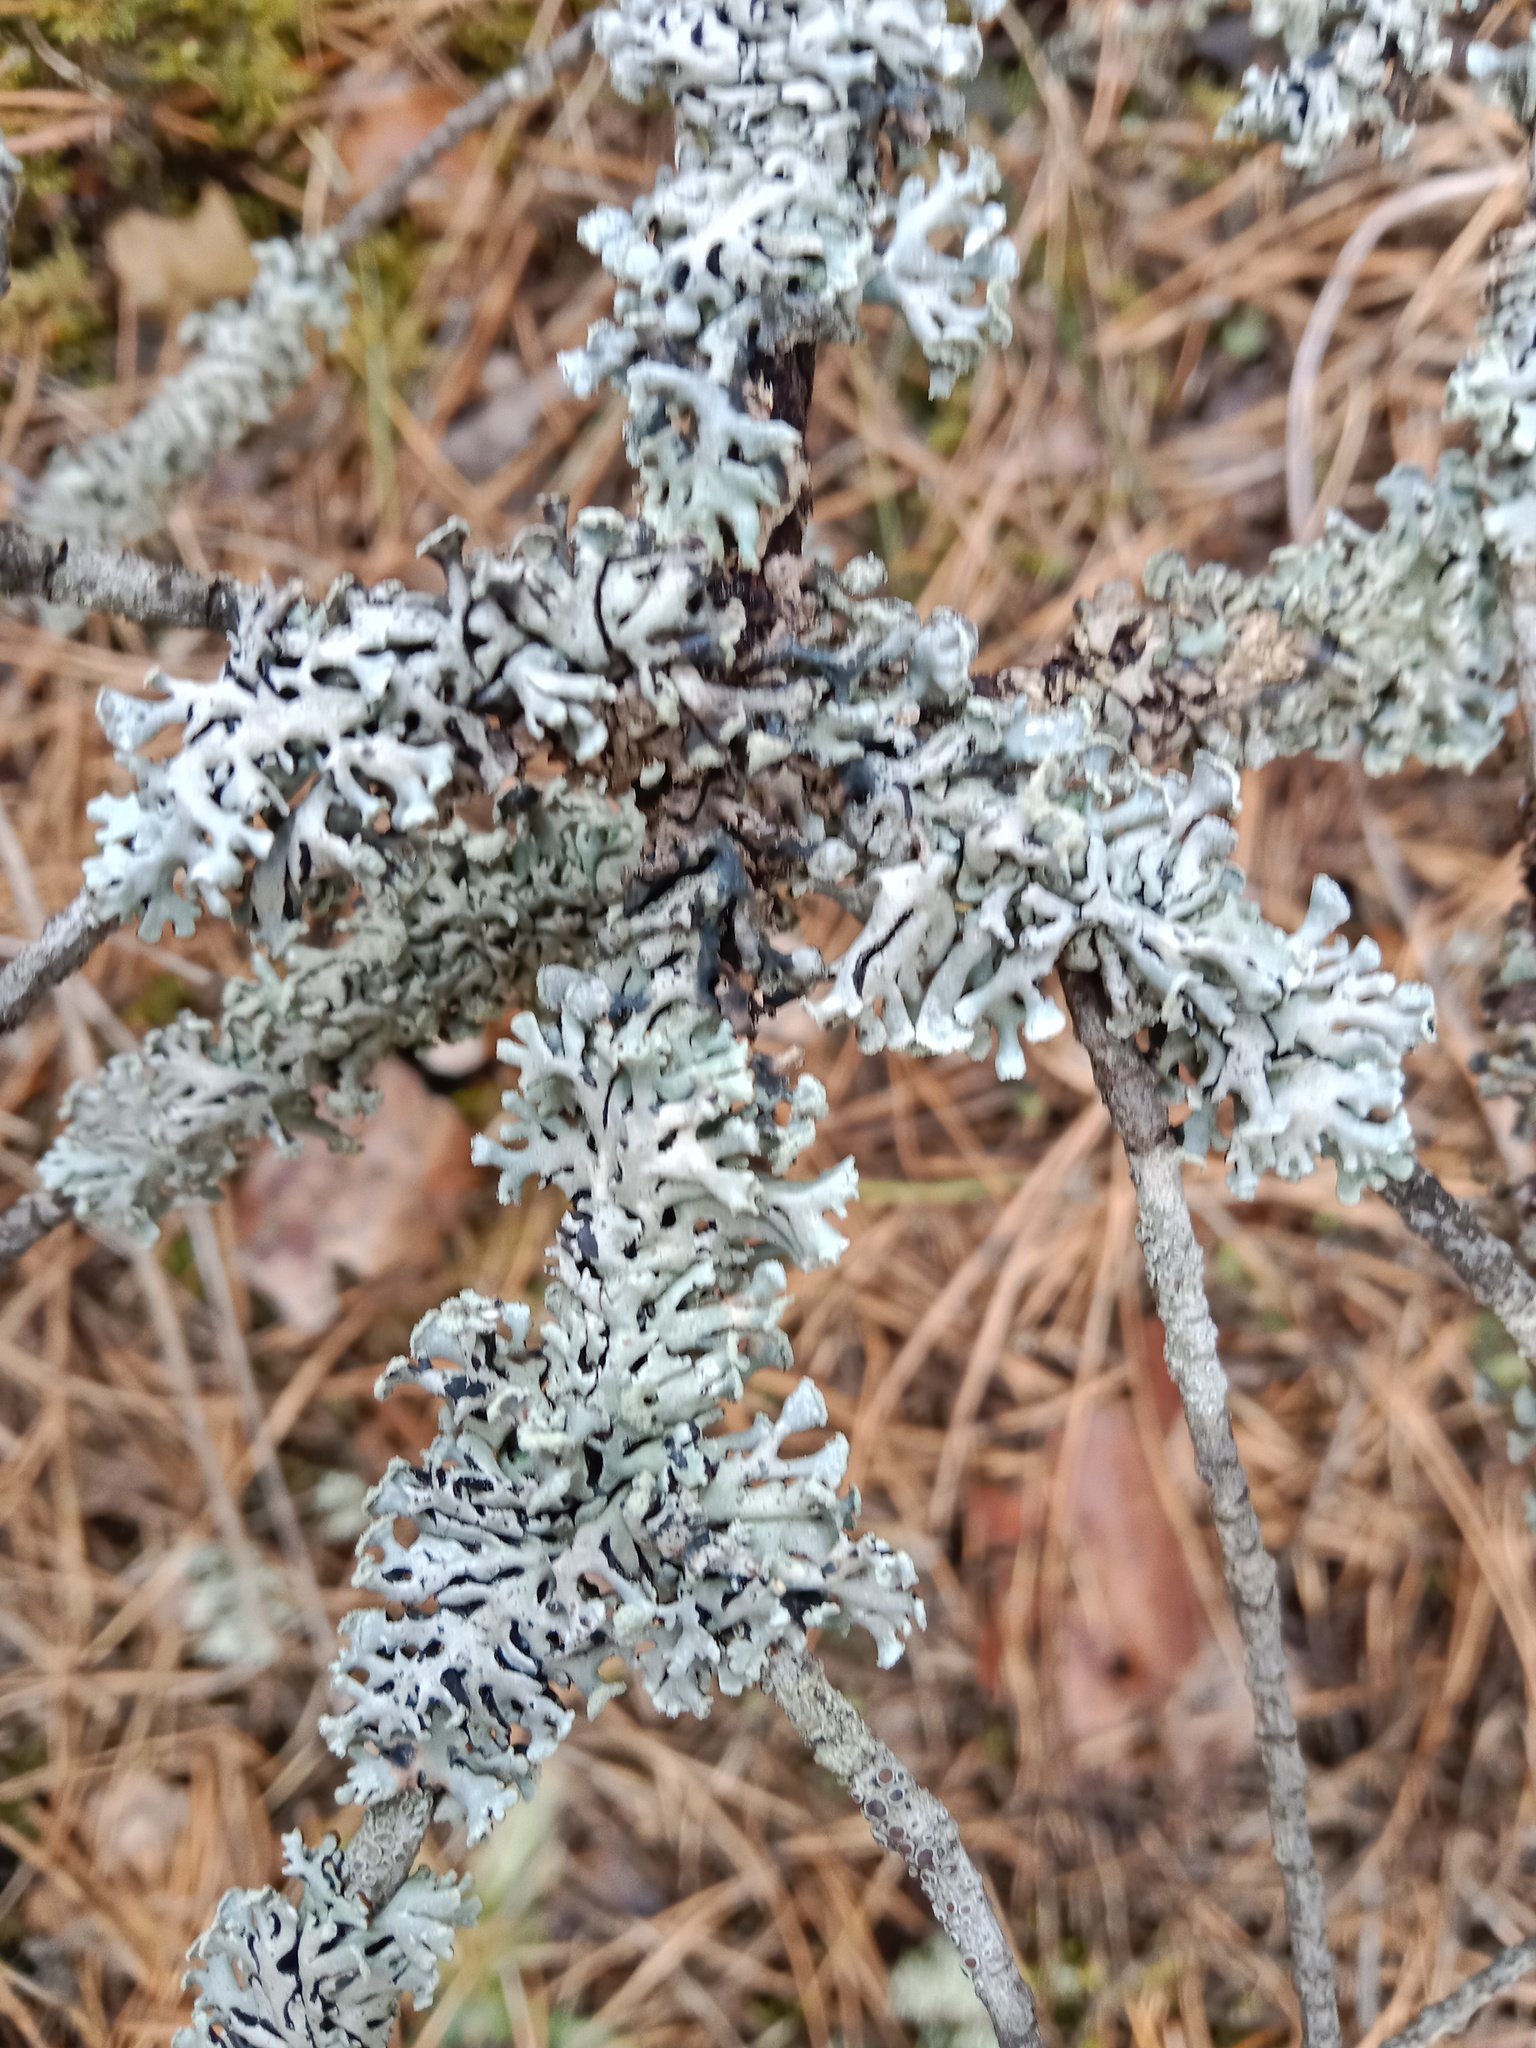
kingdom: Fungi
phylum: Ascomycota
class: Lecanoromycetes
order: Lecanorales
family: Parmeliaceae
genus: Hypogymnia
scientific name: Hypogymnia physodes
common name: Dark crottle
